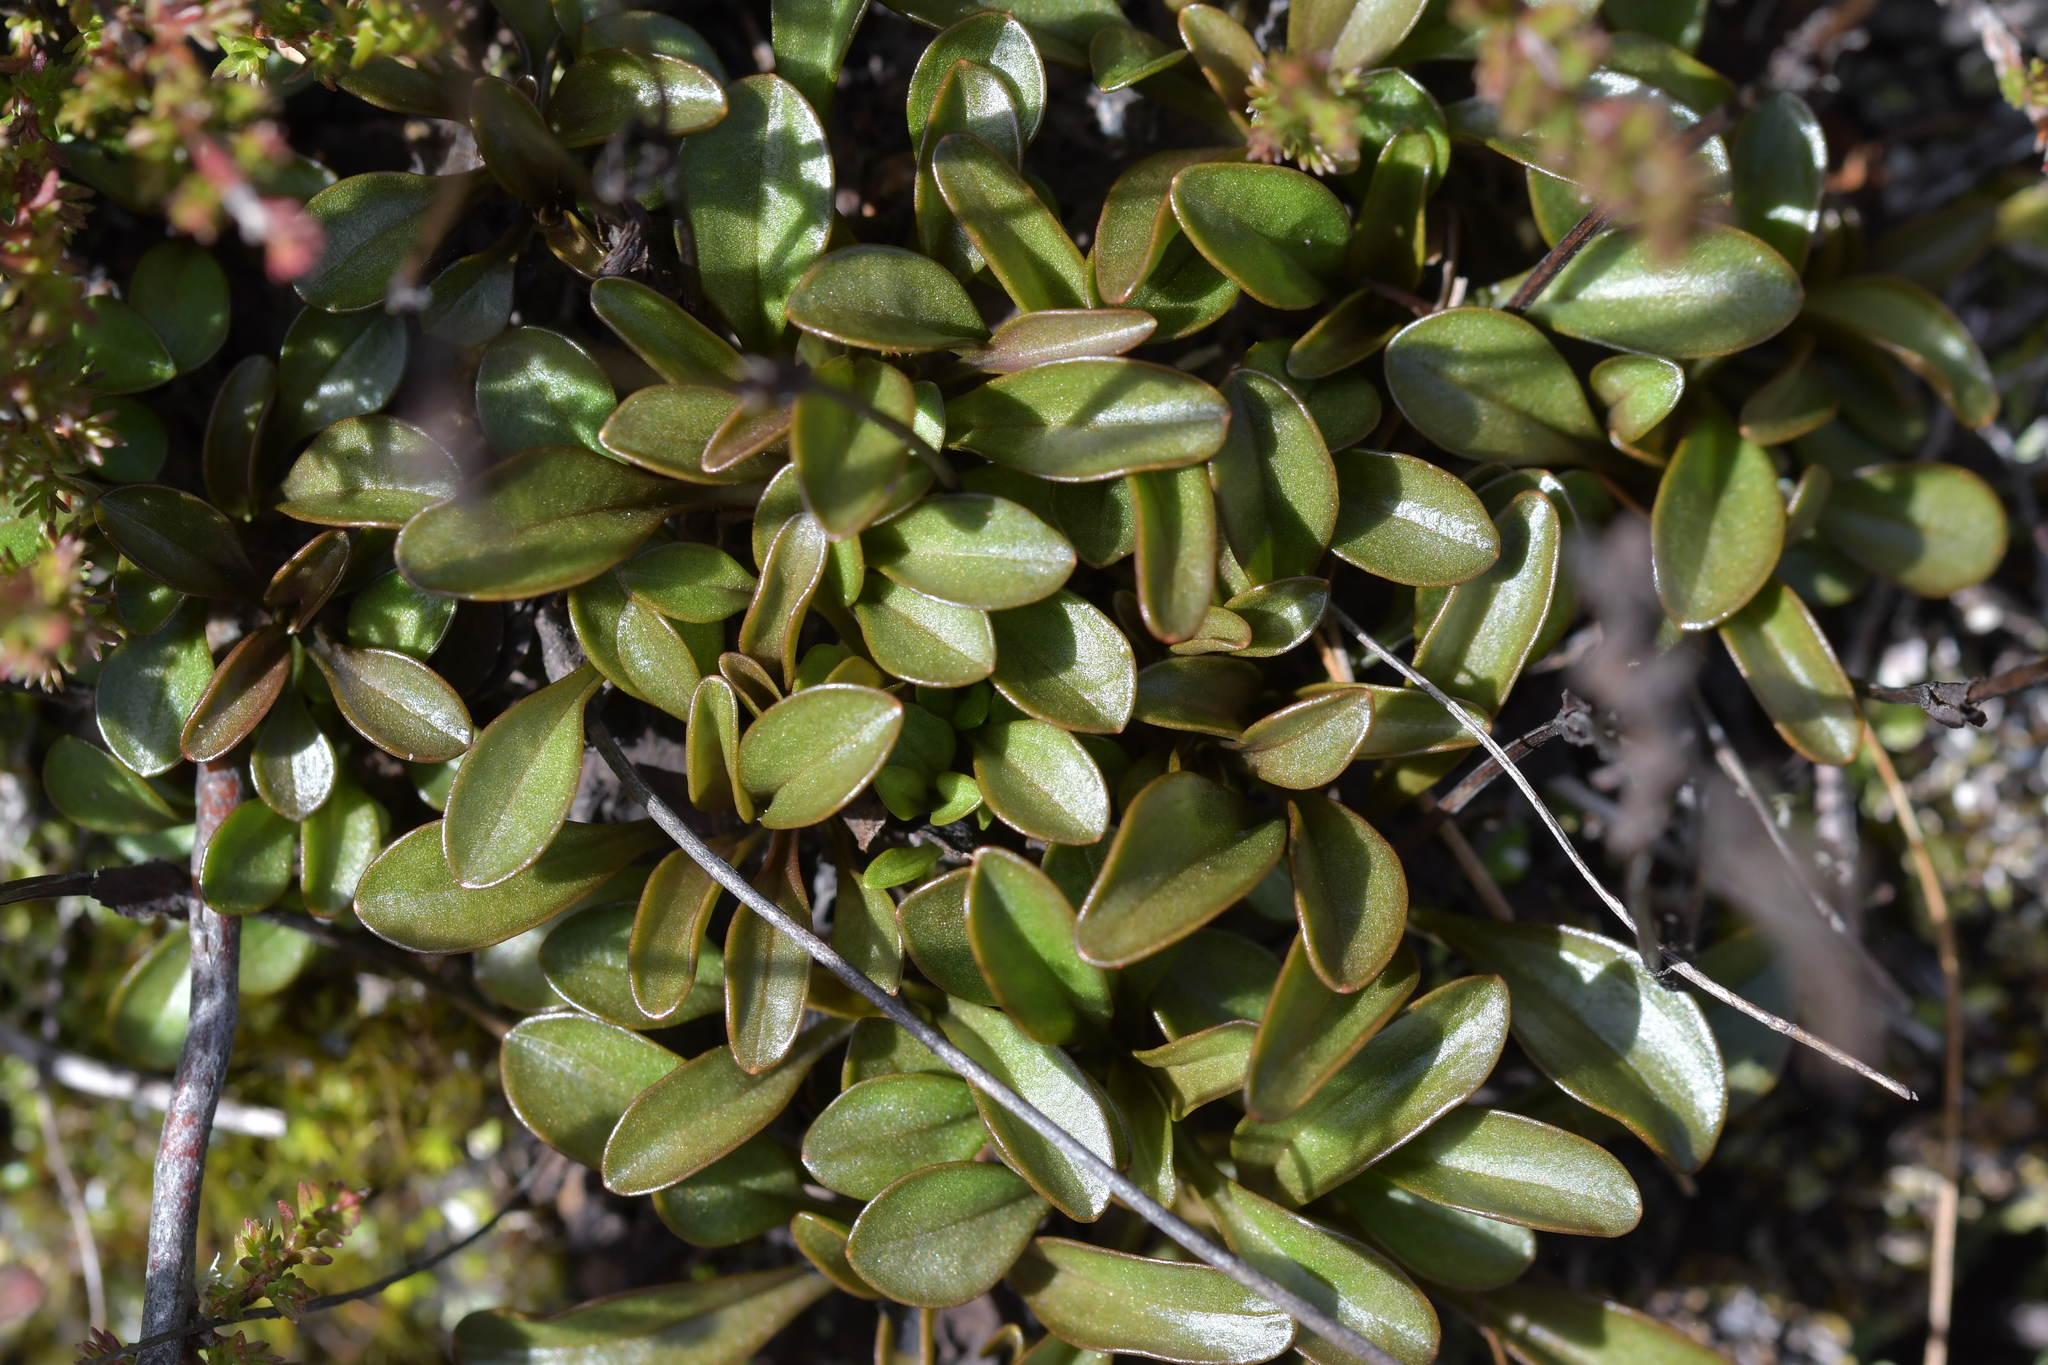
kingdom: Plantae
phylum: Tracheophyta
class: Magnoliopsida
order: Gentianales
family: Gentianaceae
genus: Gentianella
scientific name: Gentianella bellidifolia
